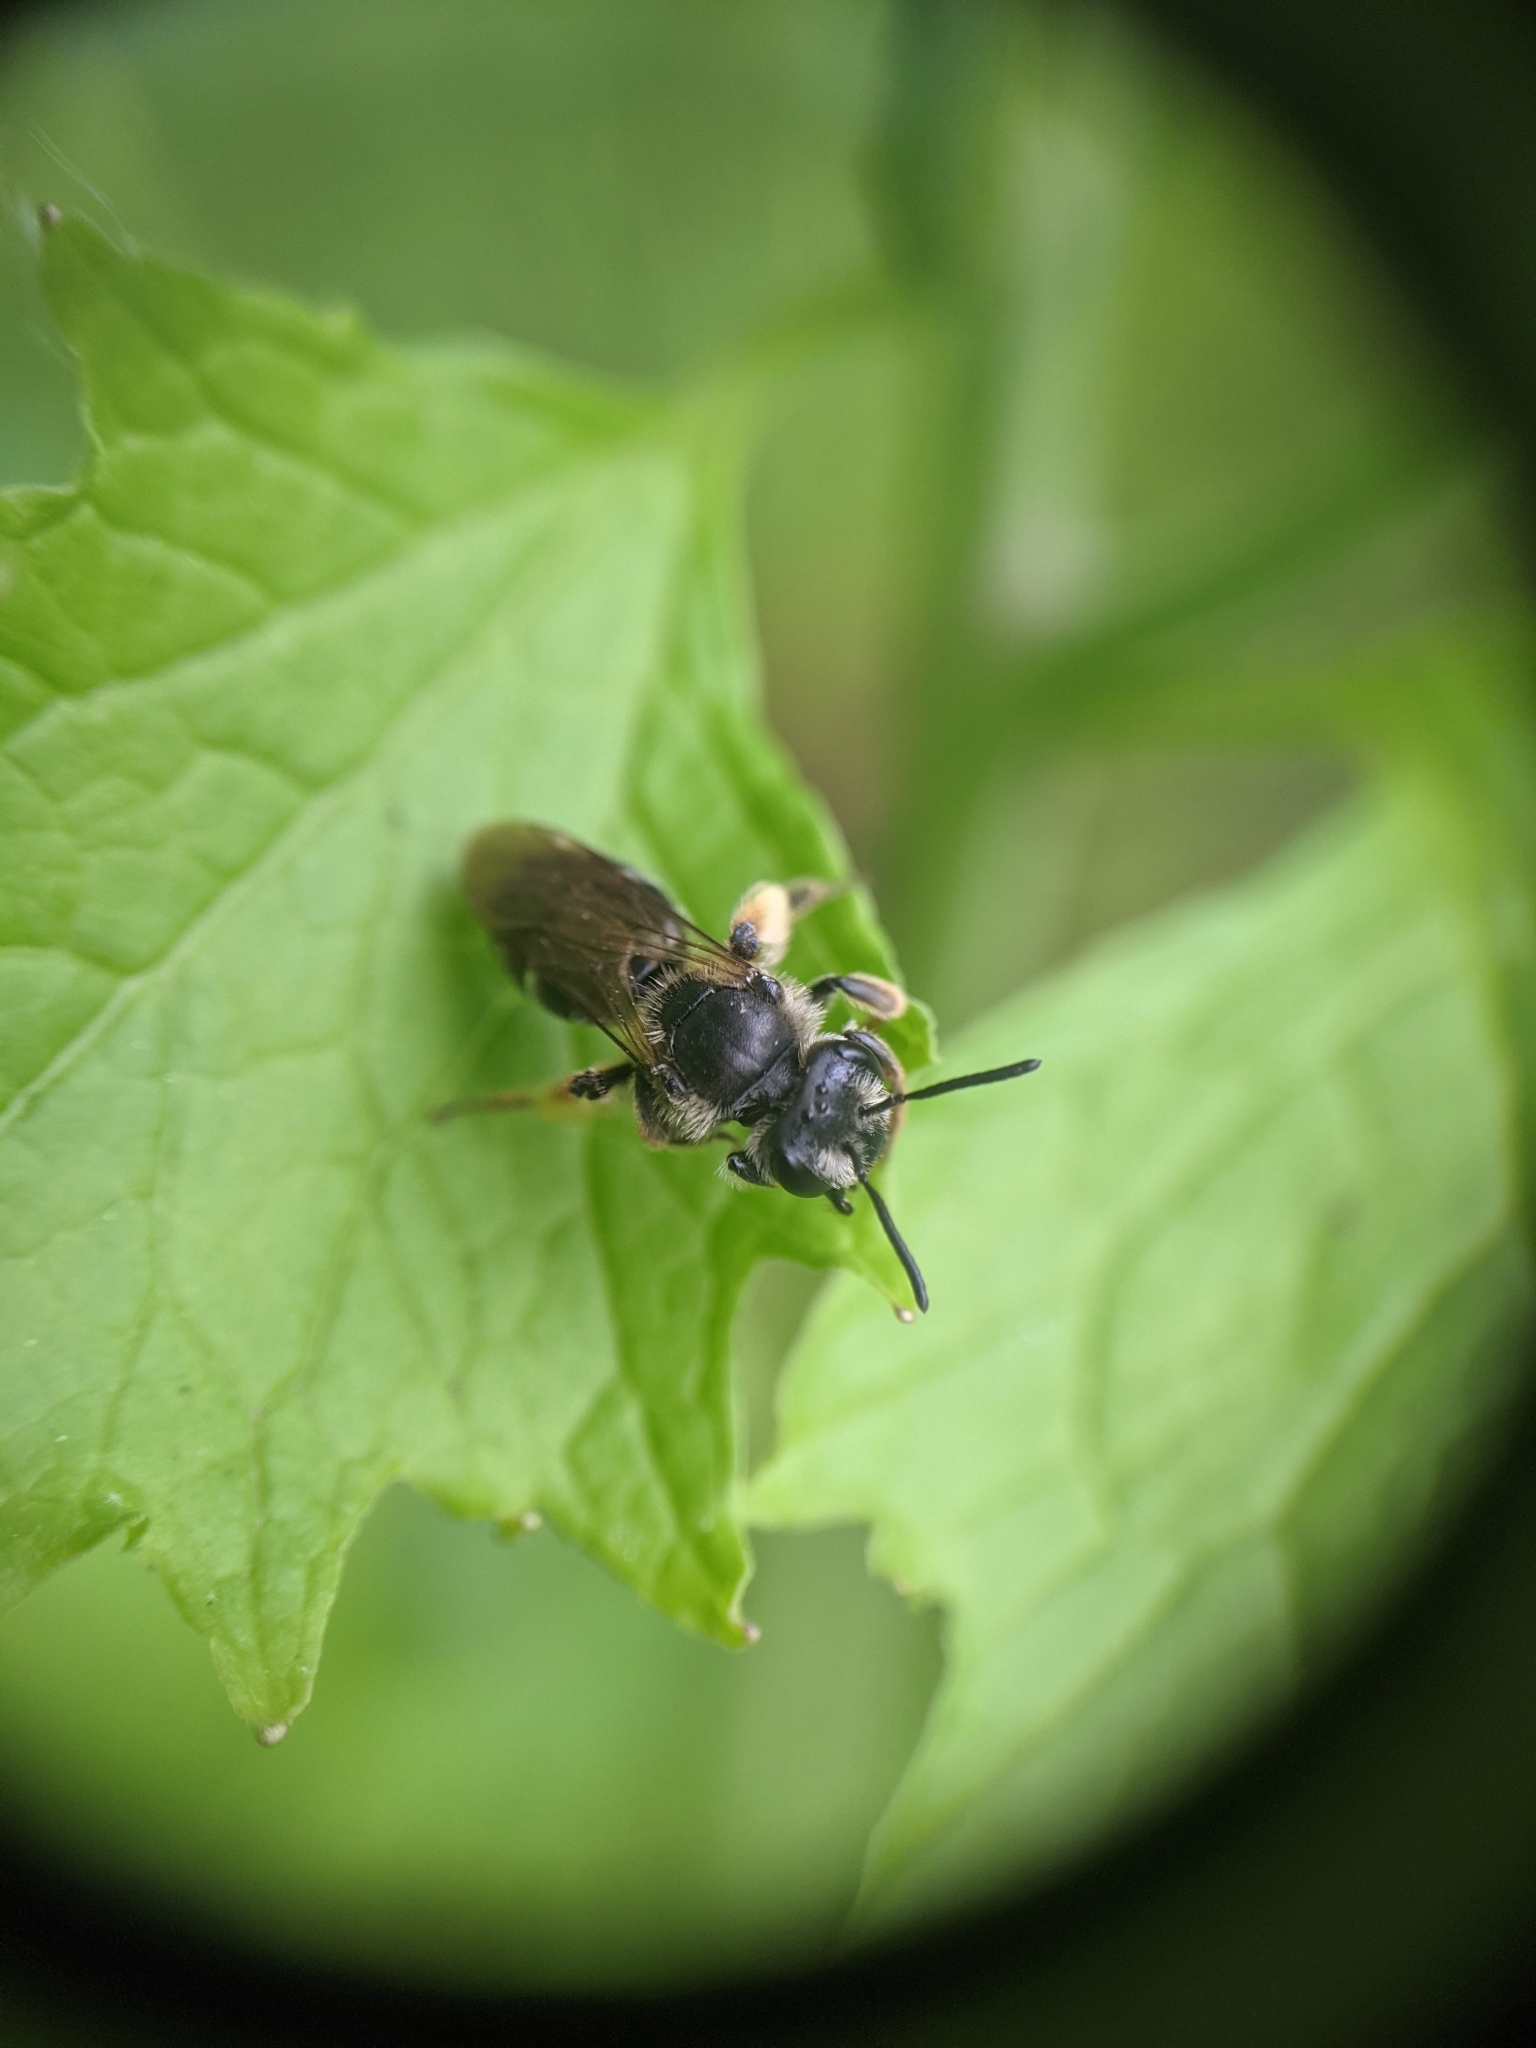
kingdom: Animalia
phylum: Arthropoda
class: Insecta
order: Hymenoptera
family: Andrenidae
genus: Andrena
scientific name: Andrena
